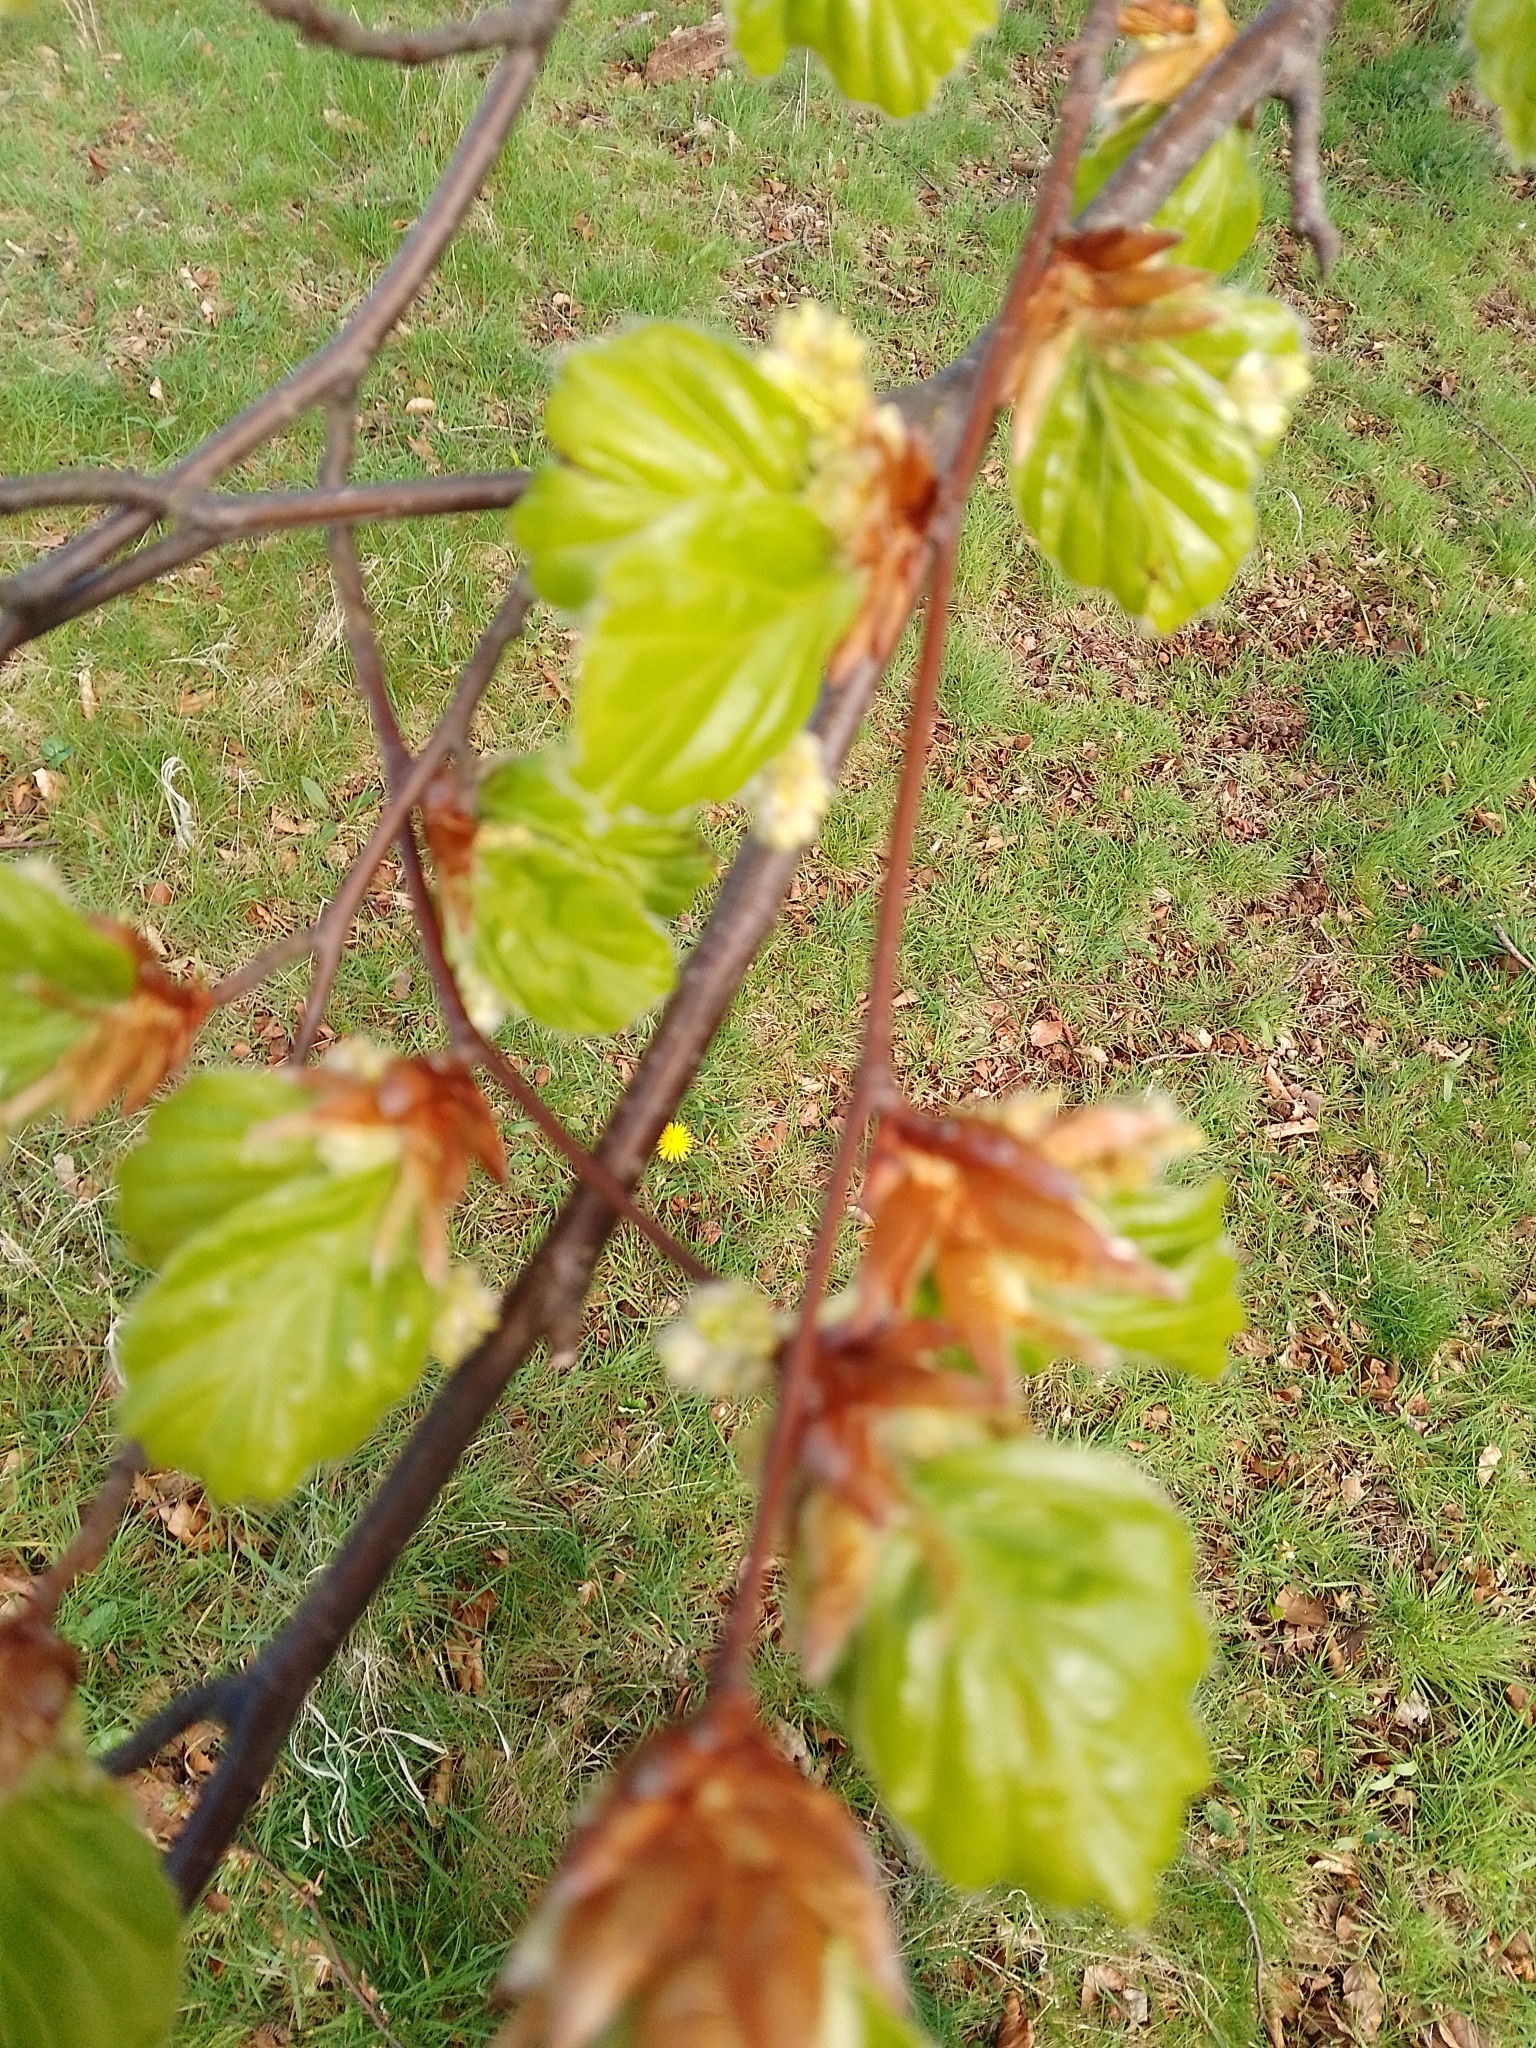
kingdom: Plantae
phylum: Tracheophyta
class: Magnoliopsida
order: Fagales
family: Fagaceae
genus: Fagus
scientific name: Fagus sylvatica
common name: Beech
